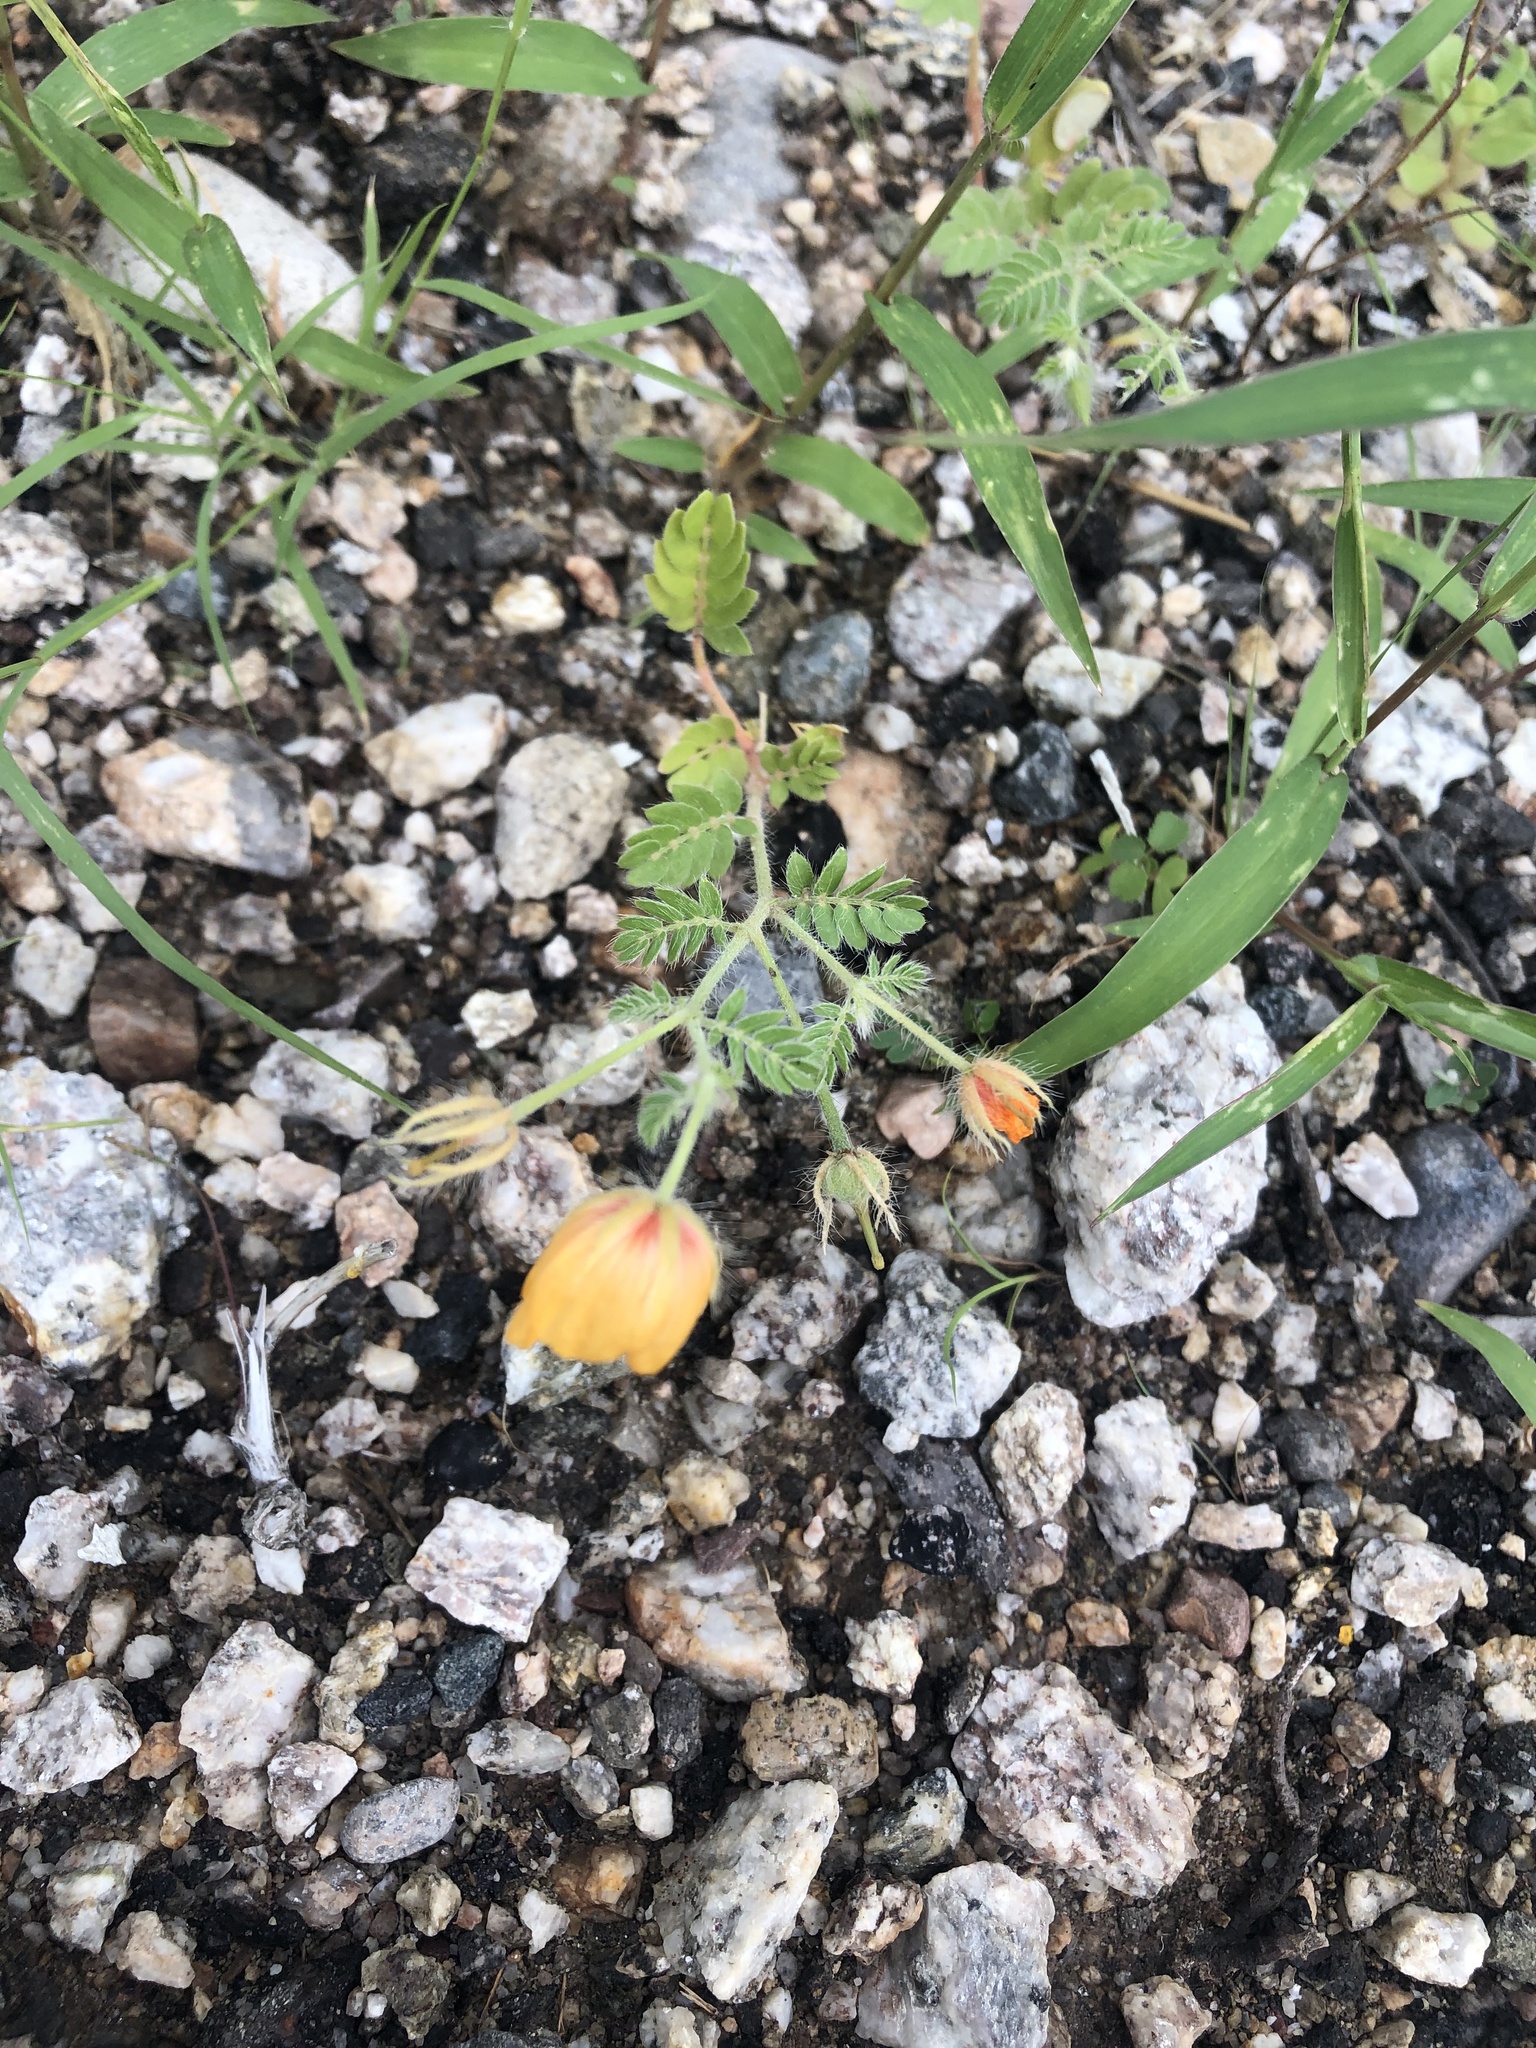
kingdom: Plantae
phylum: Tracheophyta
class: Magnoliopsida
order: Zygophyllales
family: Zygophyllaceae
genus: Kallstroemia
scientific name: Kallstroemia grandiflora
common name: Arizona-poppy
